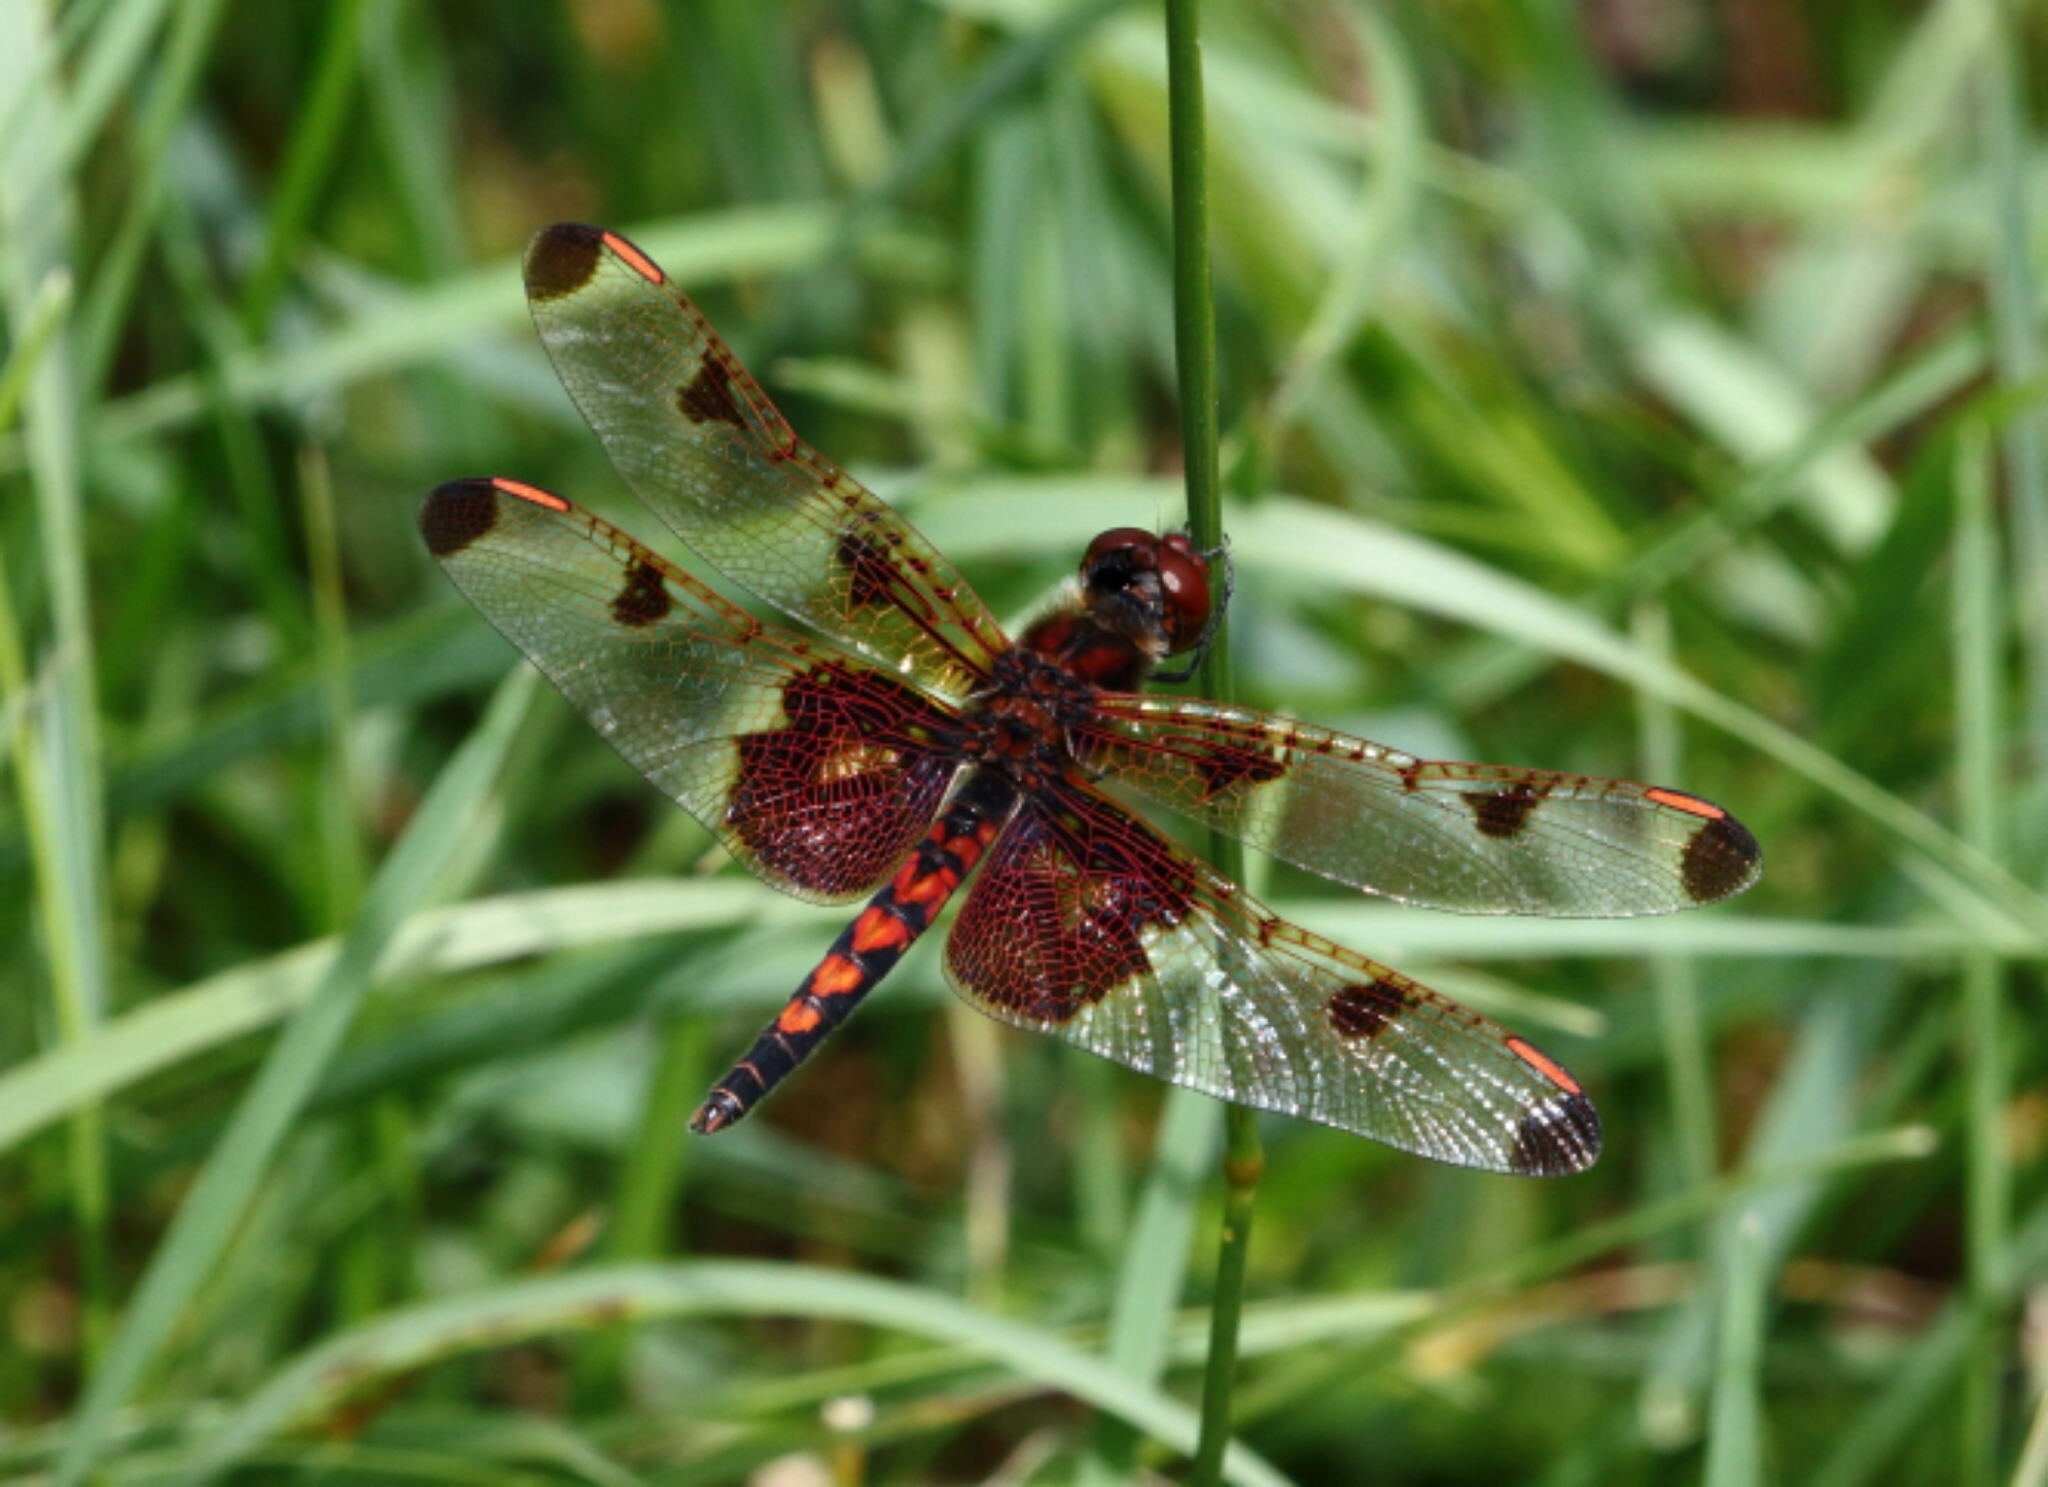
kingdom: Animalia
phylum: Arthropoda
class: Insecta
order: Odonata
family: Libellulidae
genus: Celithemis
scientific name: Celithemis elisa
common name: Calico pennant
